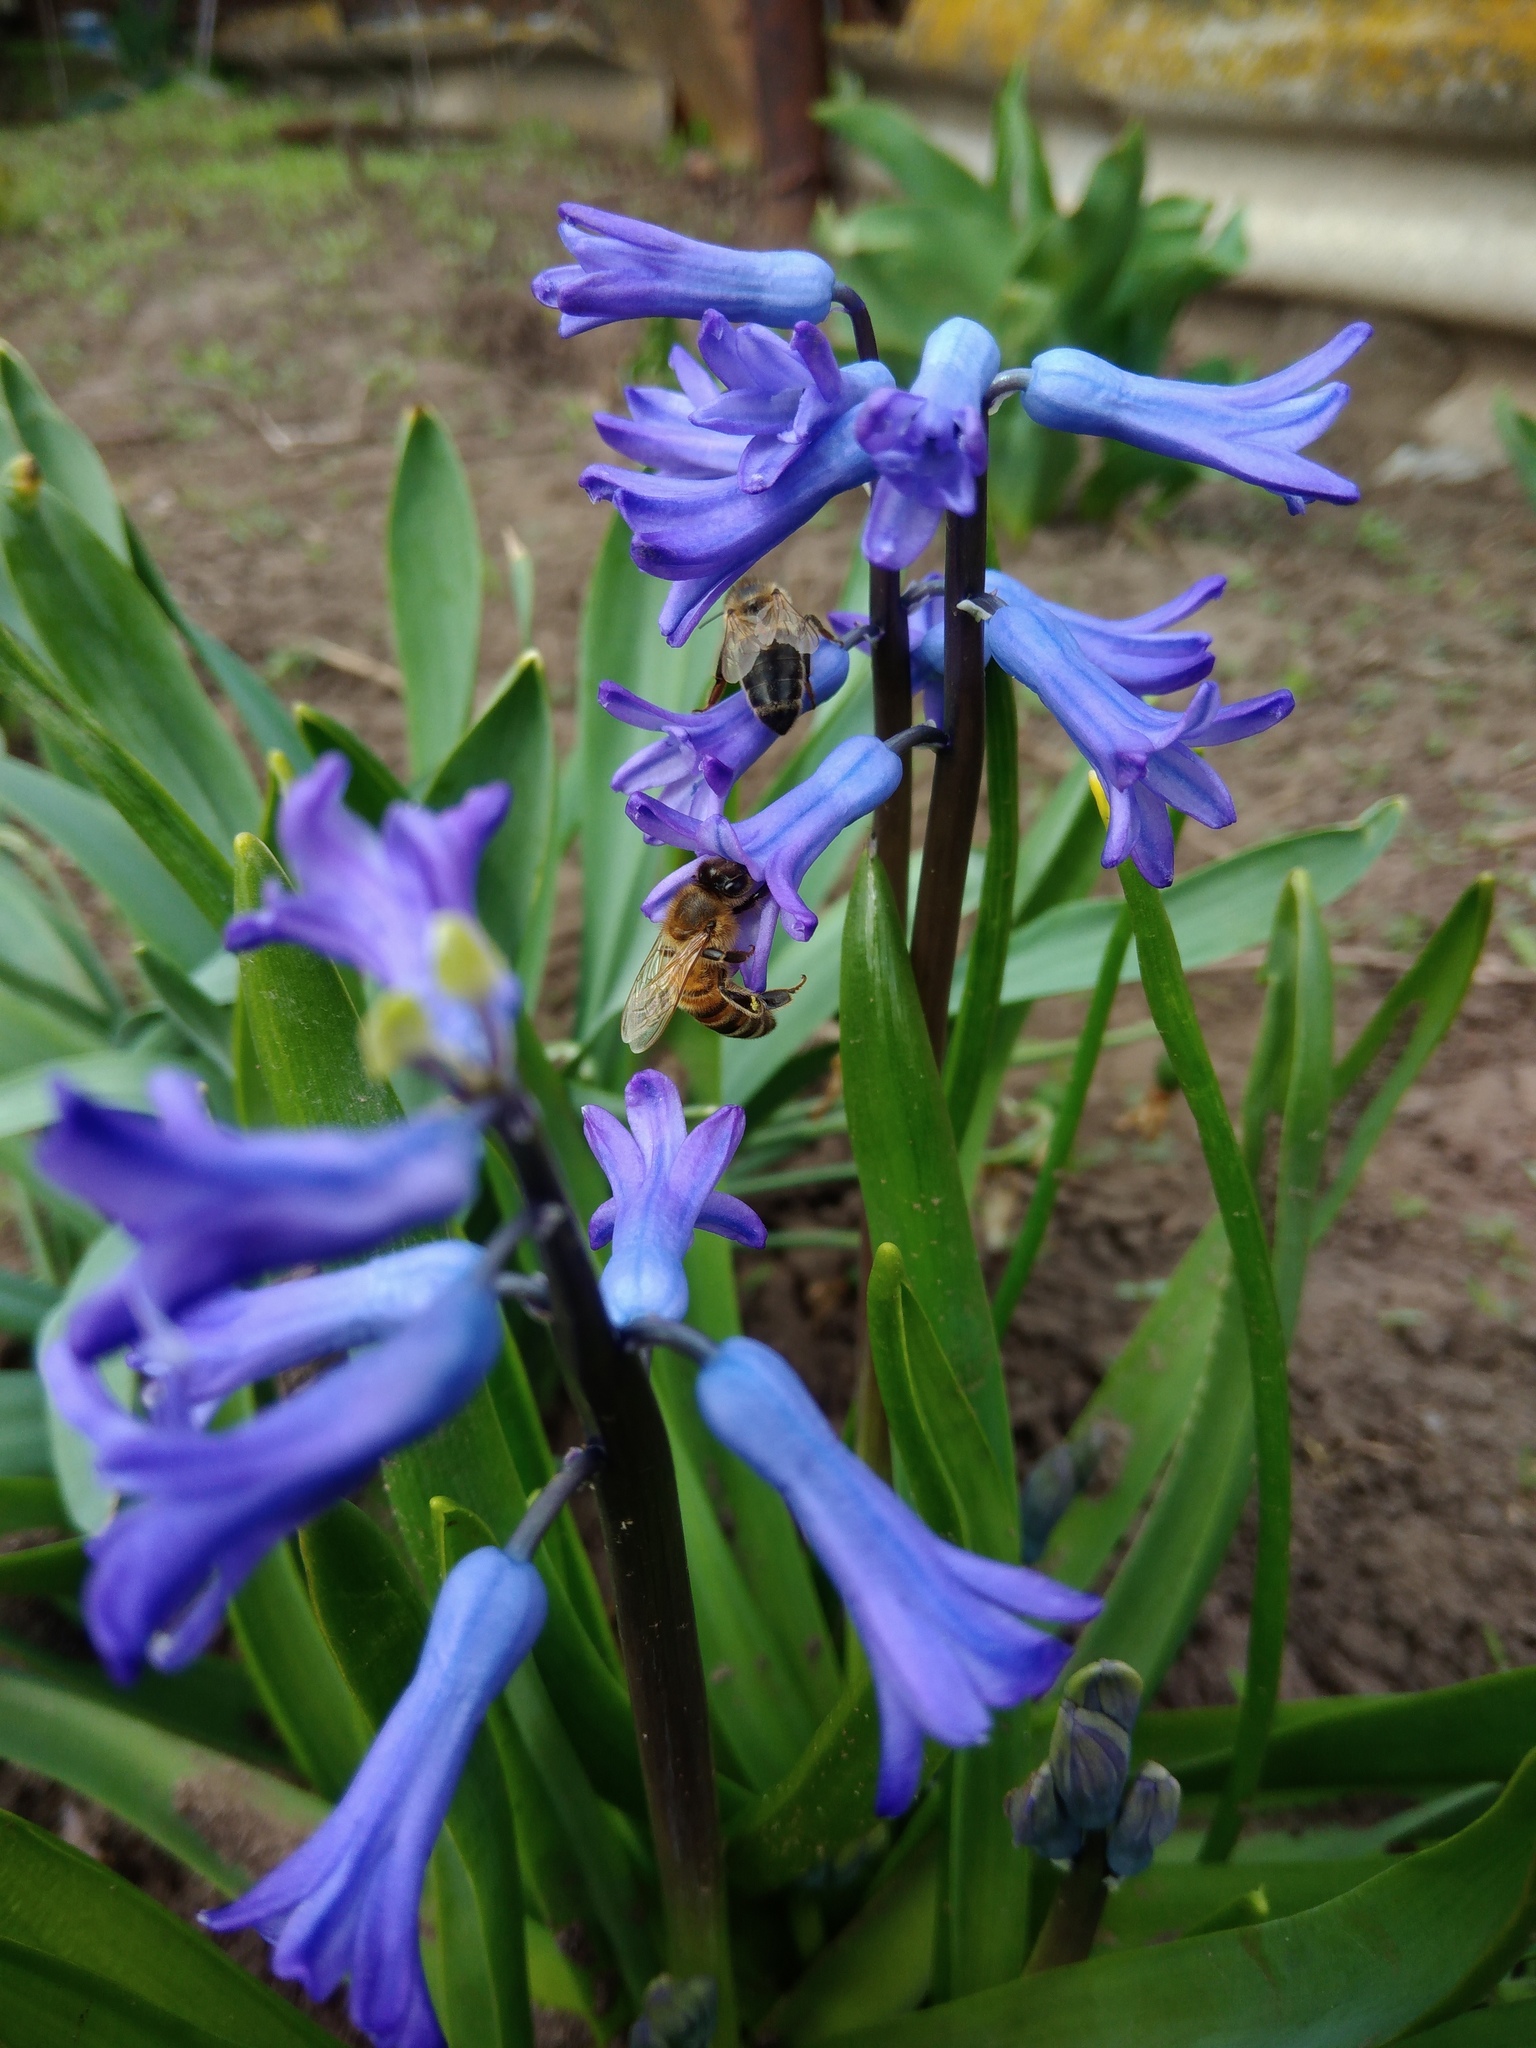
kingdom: Animalia
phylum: Arthropoda
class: Insecta
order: Hymenoptera
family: Apidae
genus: Apis
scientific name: Apis mellifera
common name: Honey bee
